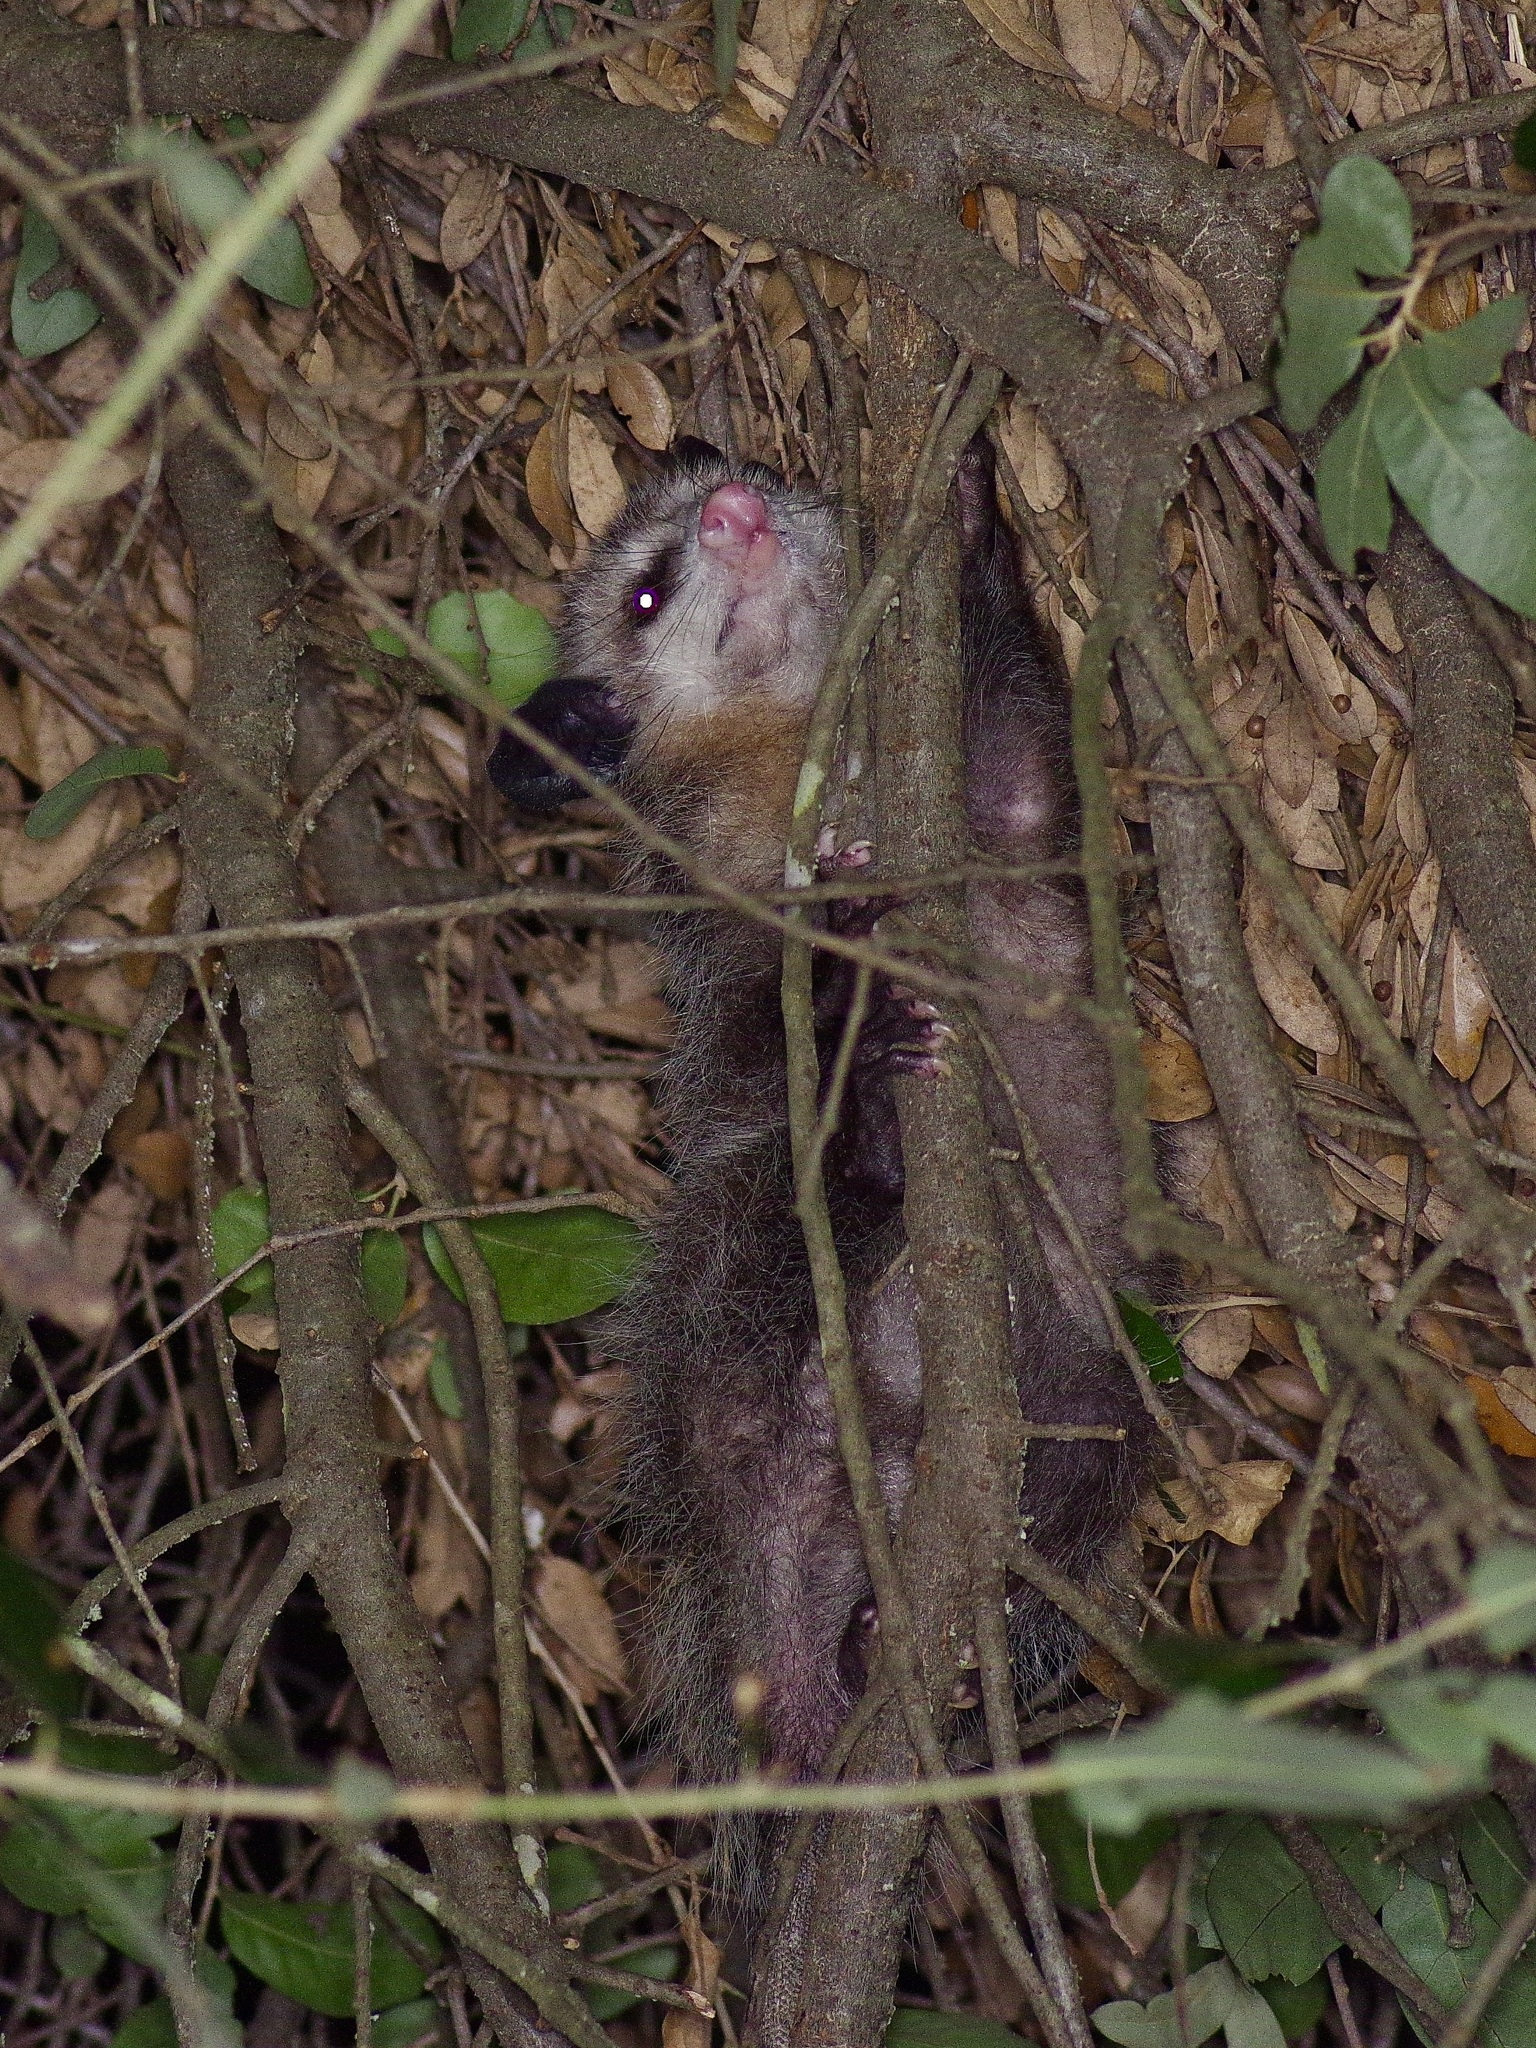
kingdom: Animalia
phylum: Chordata
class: Mammalia
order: Didelphimorphia
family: Didelphidae
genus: Didelphis
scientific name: Didelphis virginiana
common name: Virginia opossum
